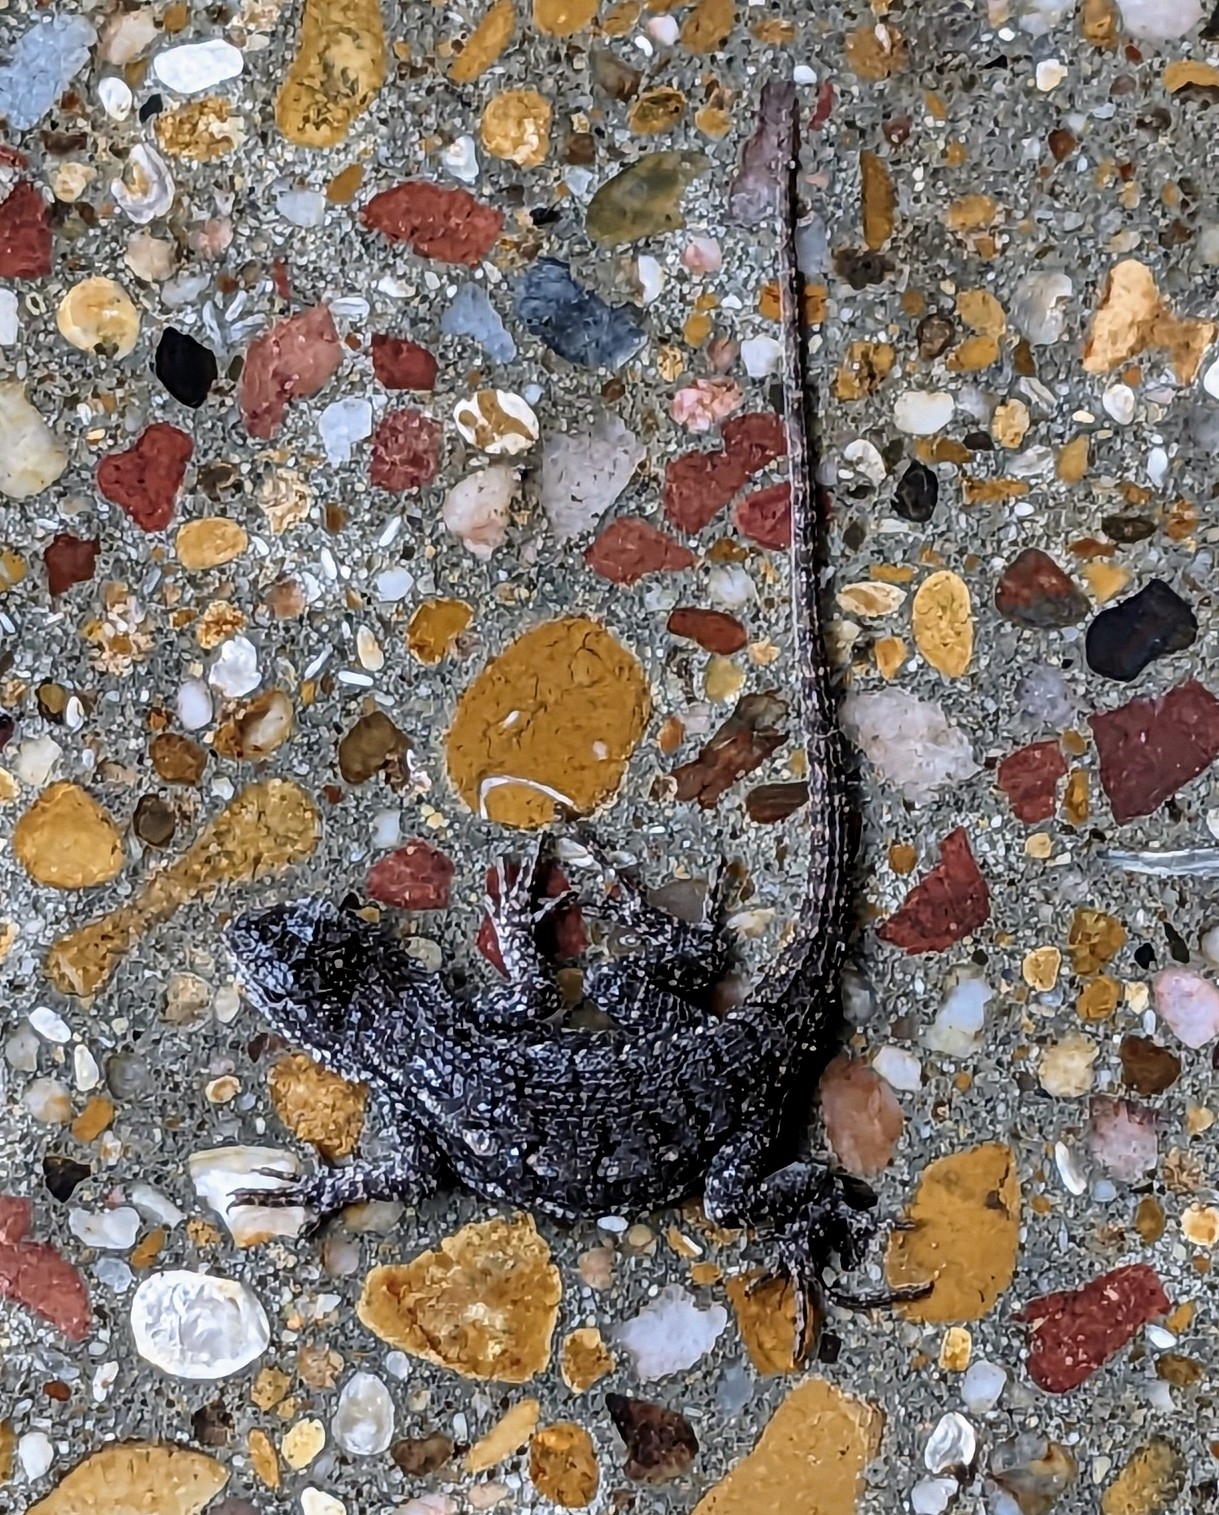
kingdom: Animalia
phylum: Chordata
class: Squamata
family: Phrynosomatidae
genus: Sceloporus
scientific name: Sceloporus olivaceus
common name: Texas spiny lizard
